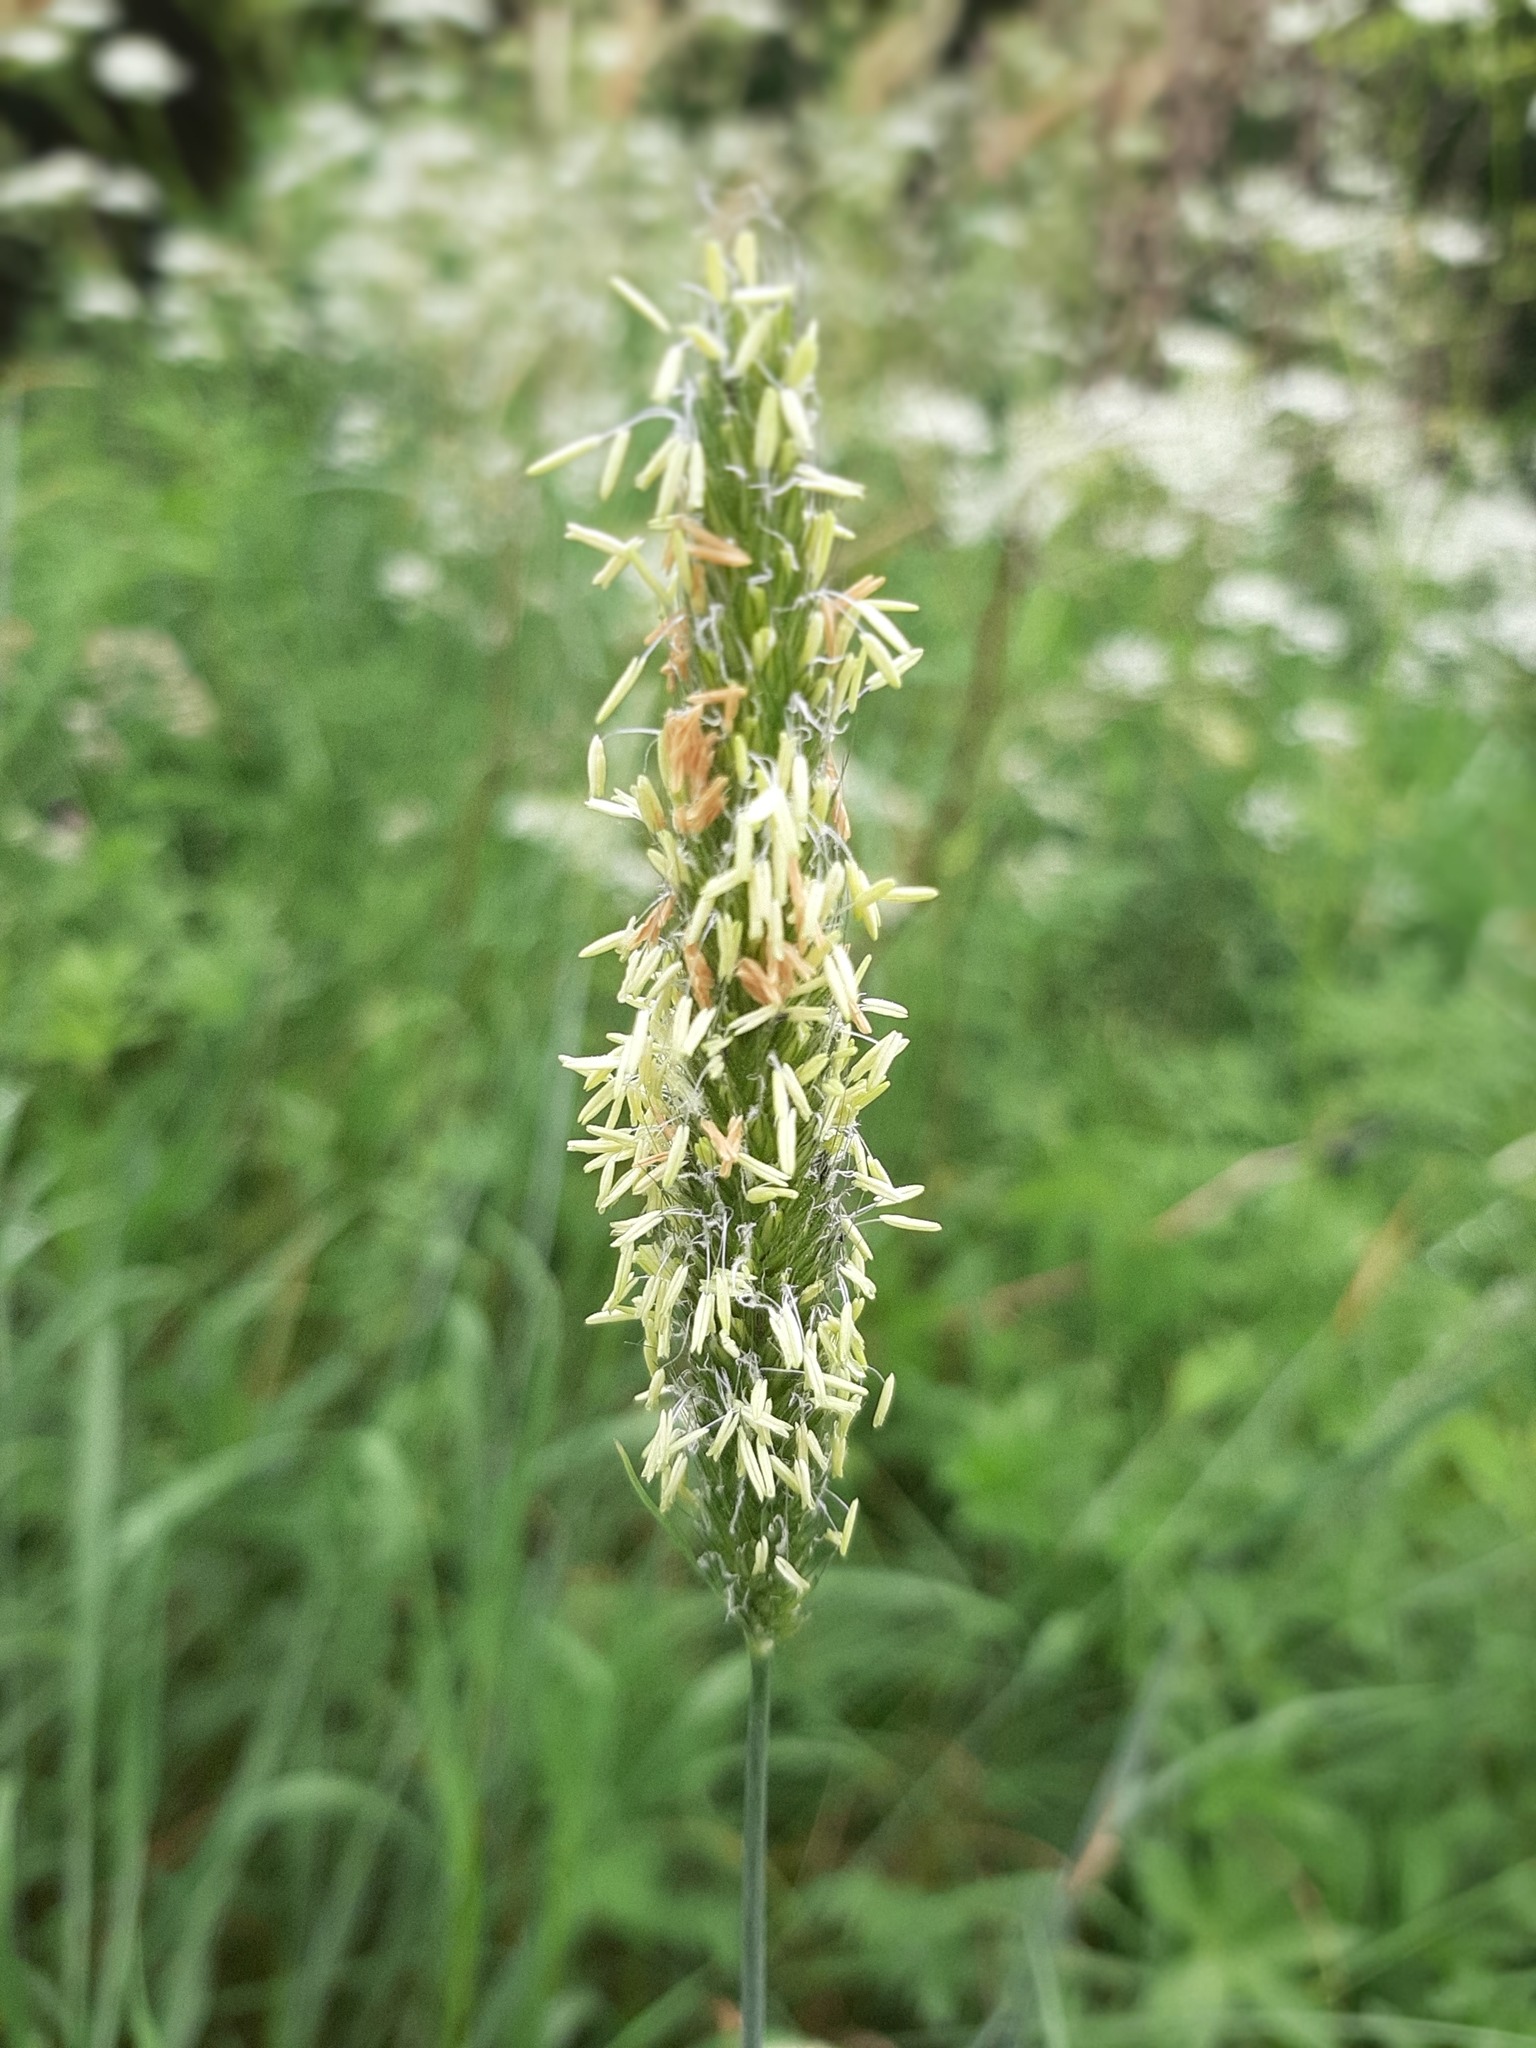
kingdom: Plantae
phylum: Tracheophyta
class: Liliopsida
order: Poales
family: Poaceae
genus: Alopecurus
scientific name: Alopecurus pratensis
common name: Meadow foxtail
